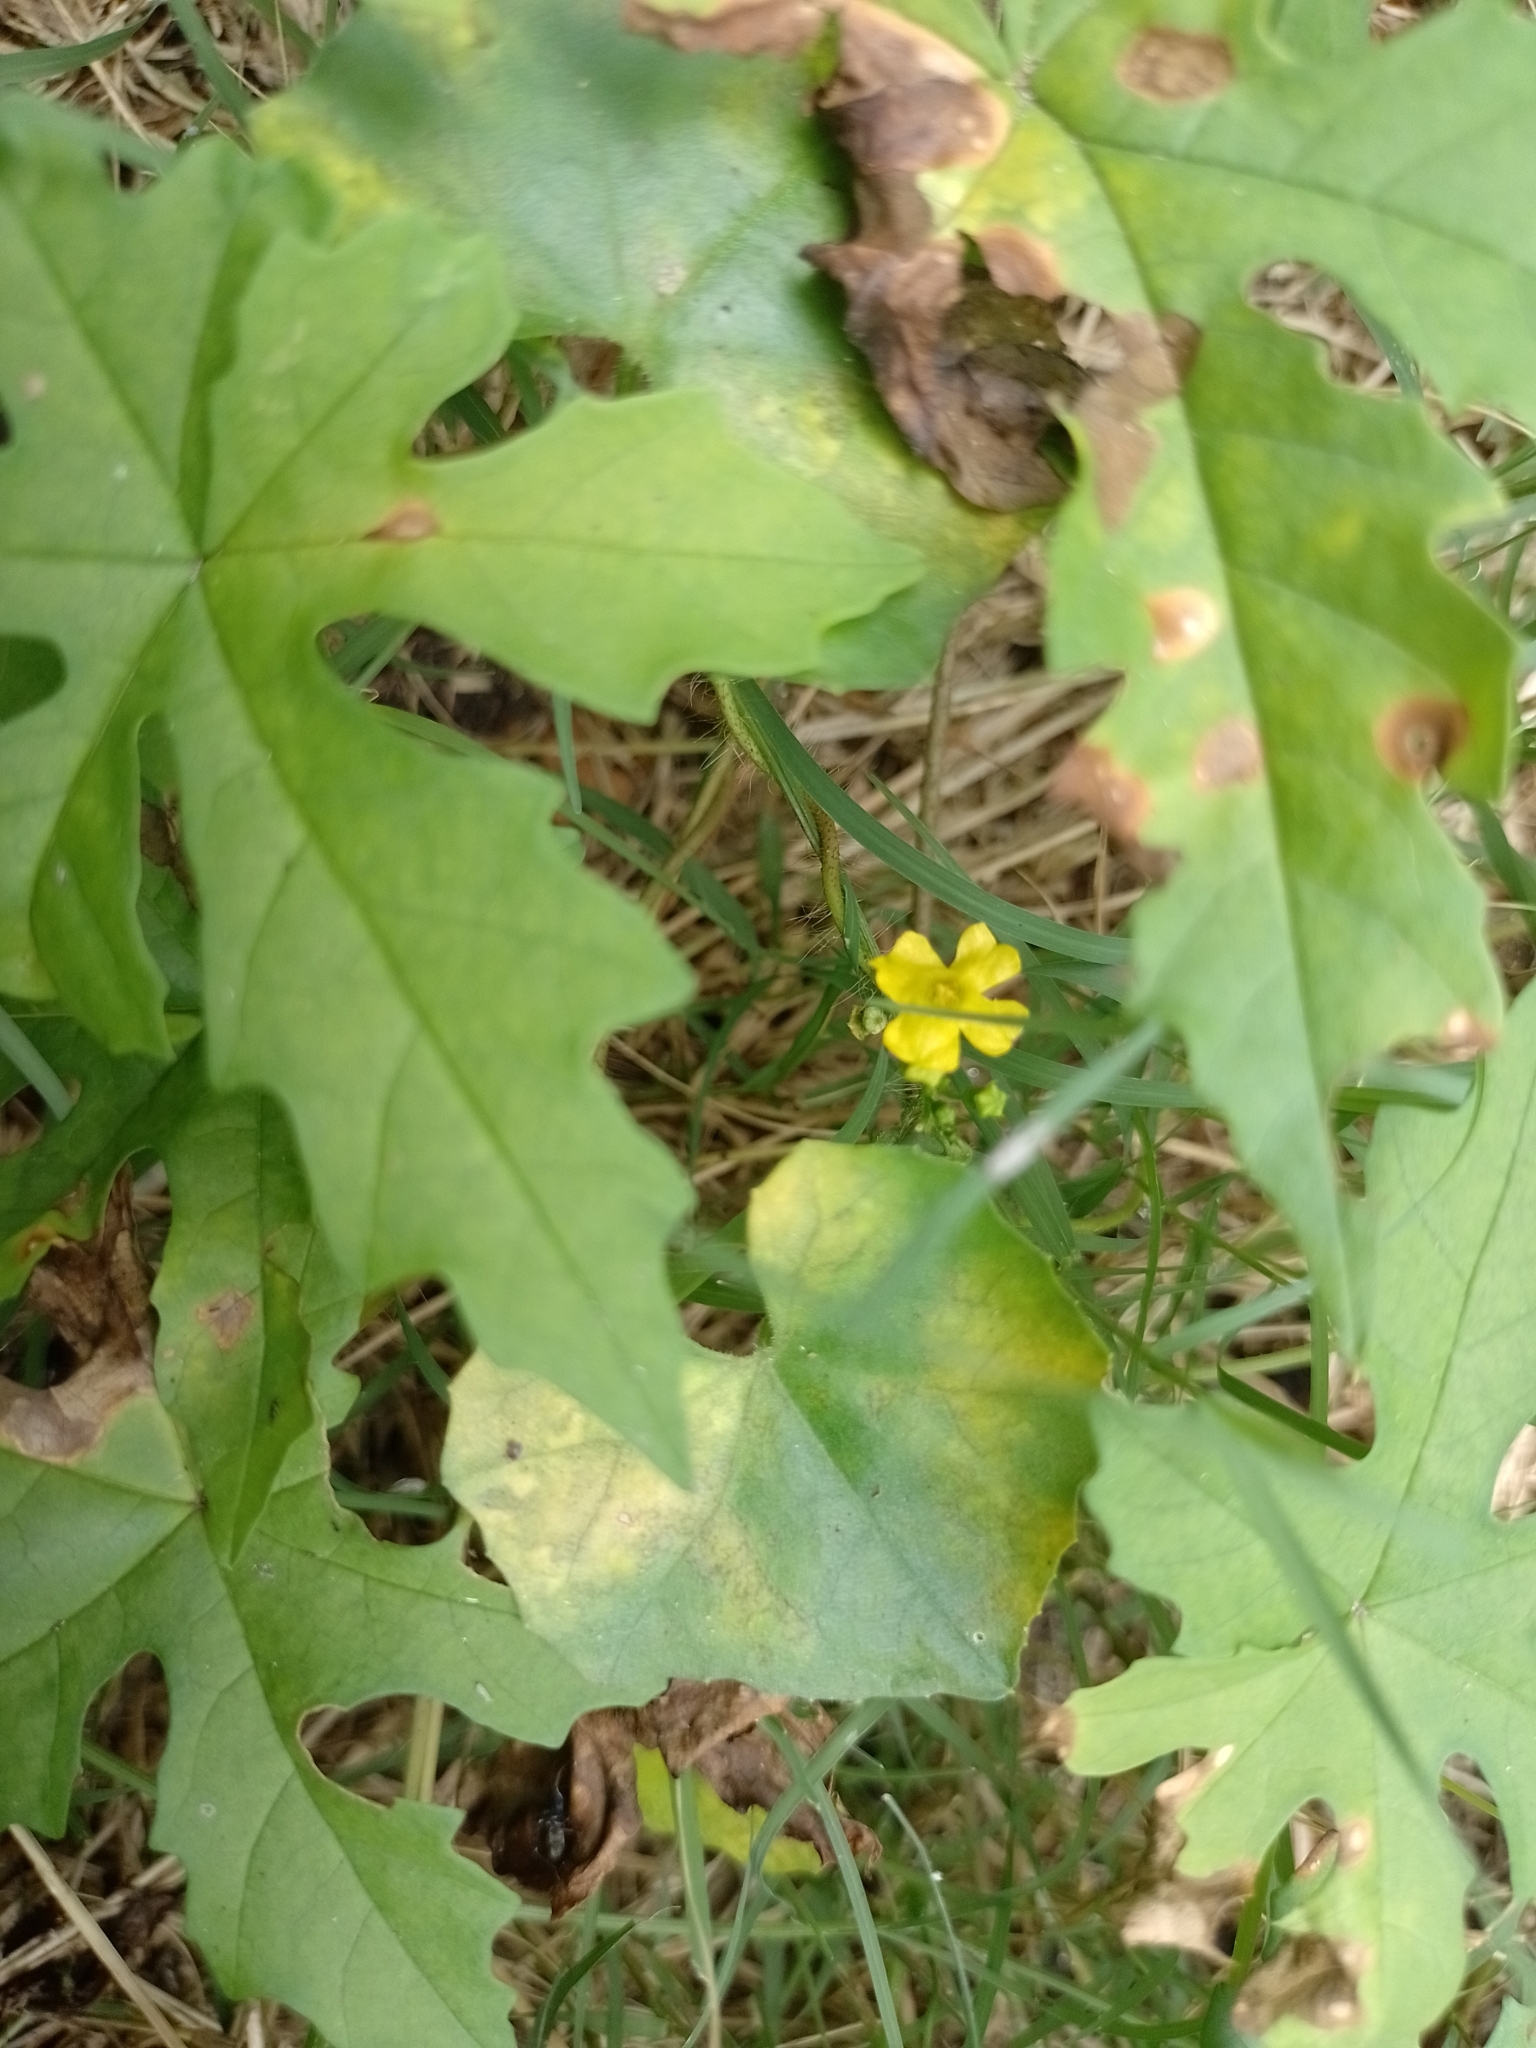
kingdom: Plantae
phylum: Tracheophyta
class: Magnoliopsida
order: Cucurbitales
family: Cucurbitaceae
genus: Melothria
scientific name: Melothria pendula
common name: Creeping-cucumber
